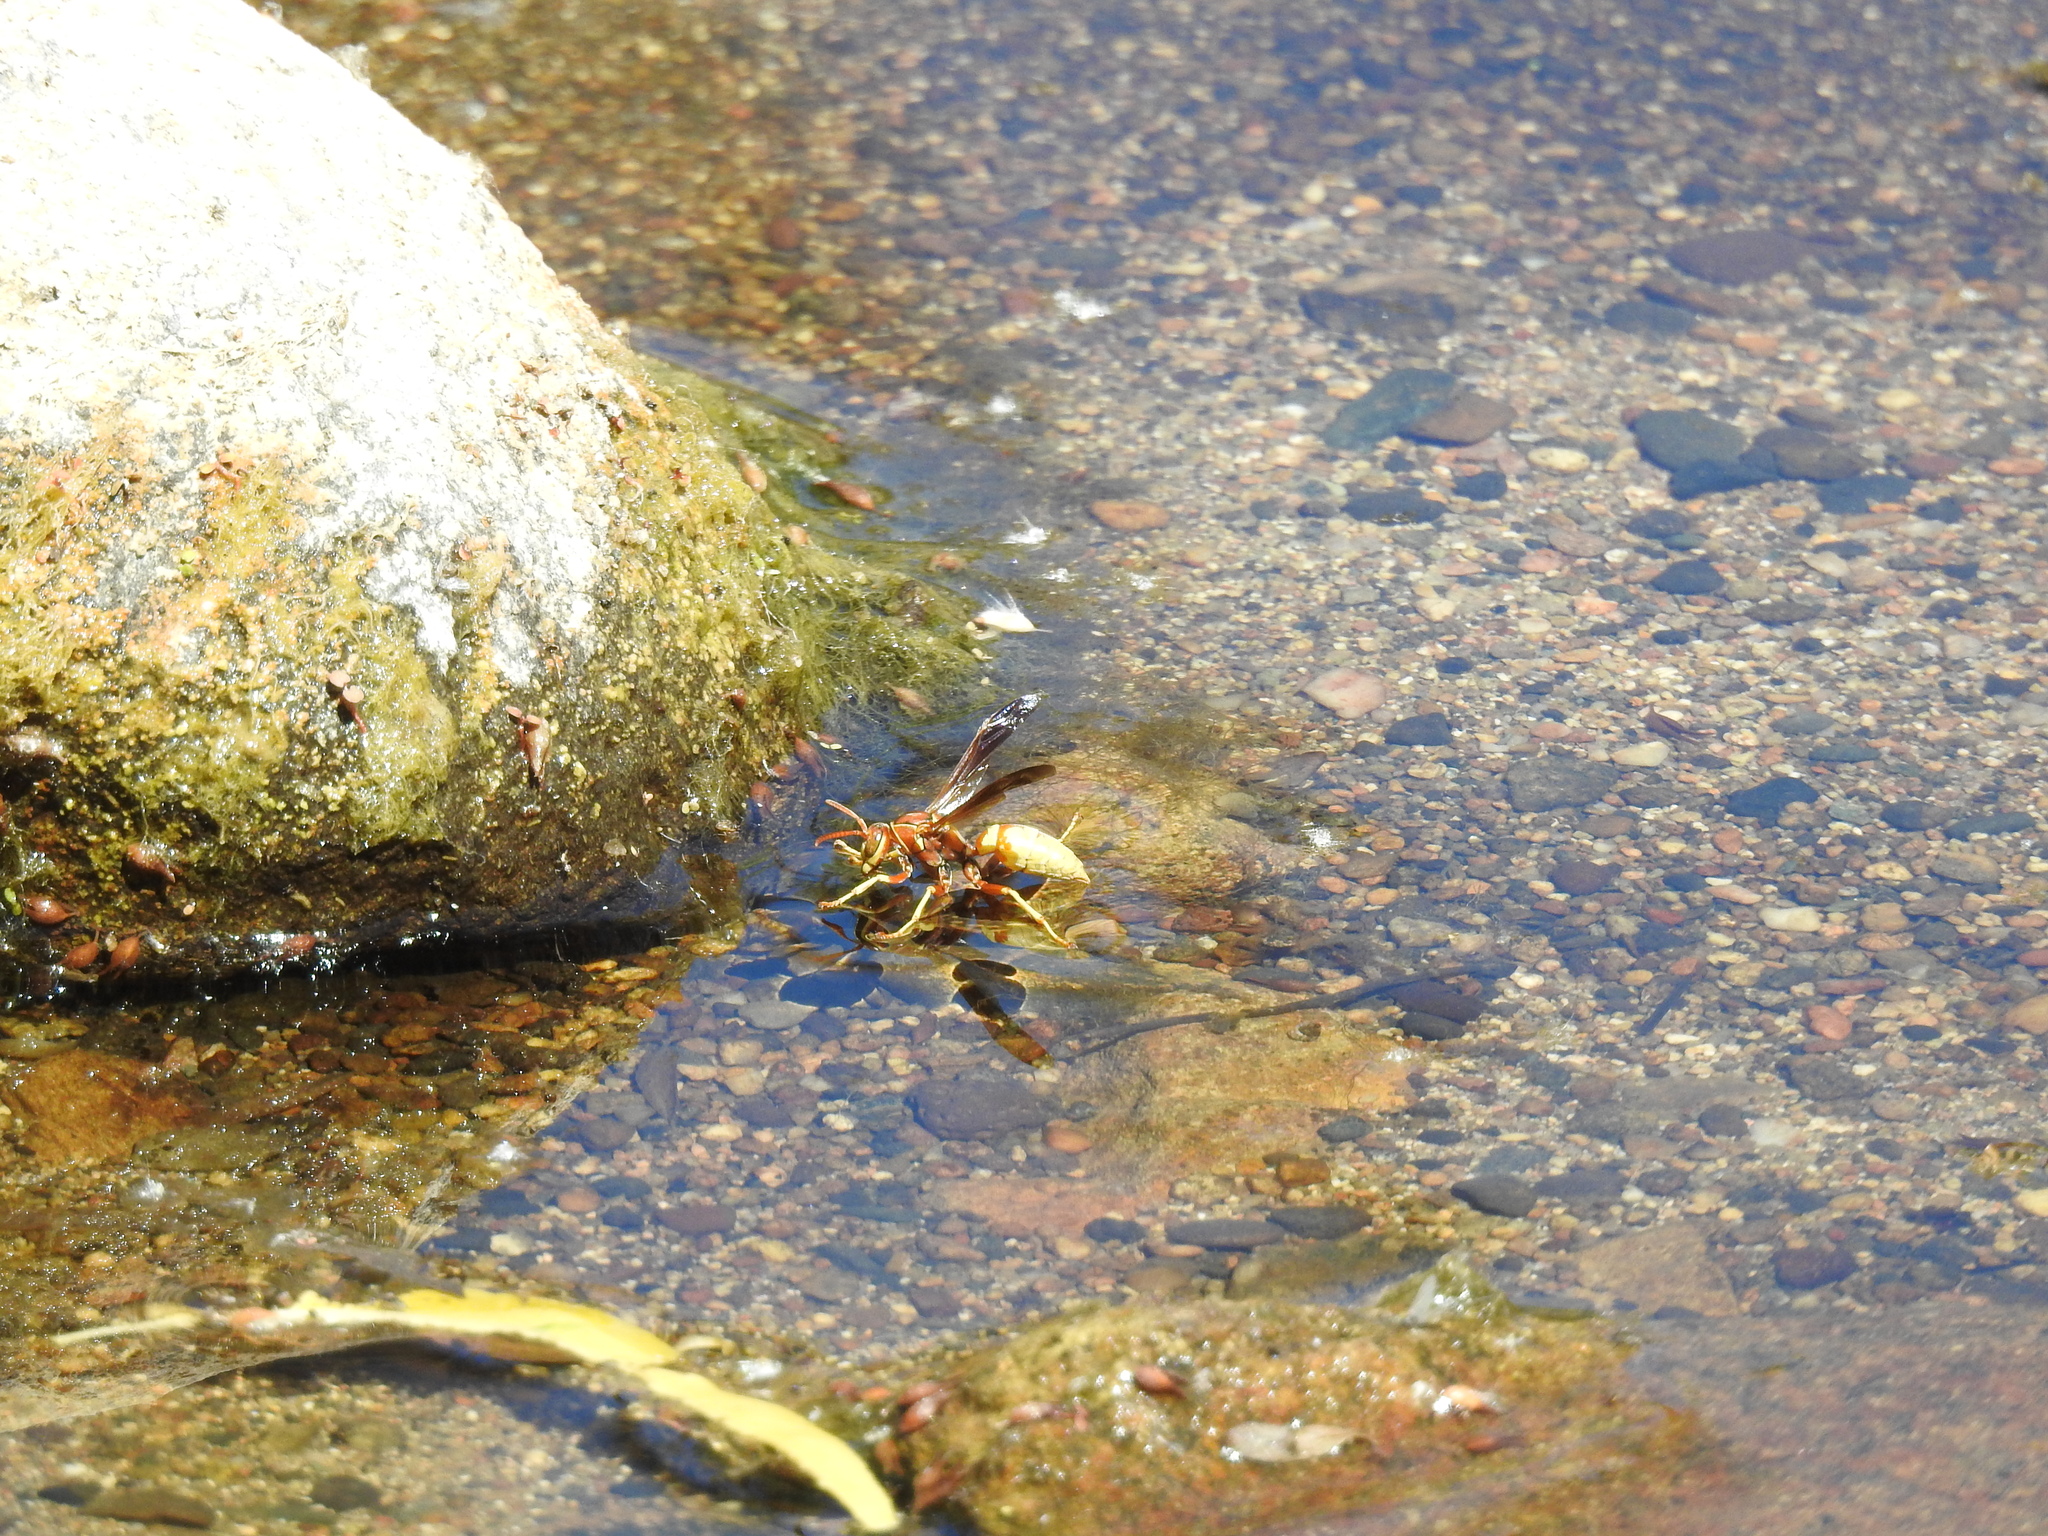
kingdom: Animalia
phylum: Arthropoda
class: Insecta
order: Hymenoptera
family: Vespidae
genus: Fuscopolistes
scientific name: Fuscopolistes
